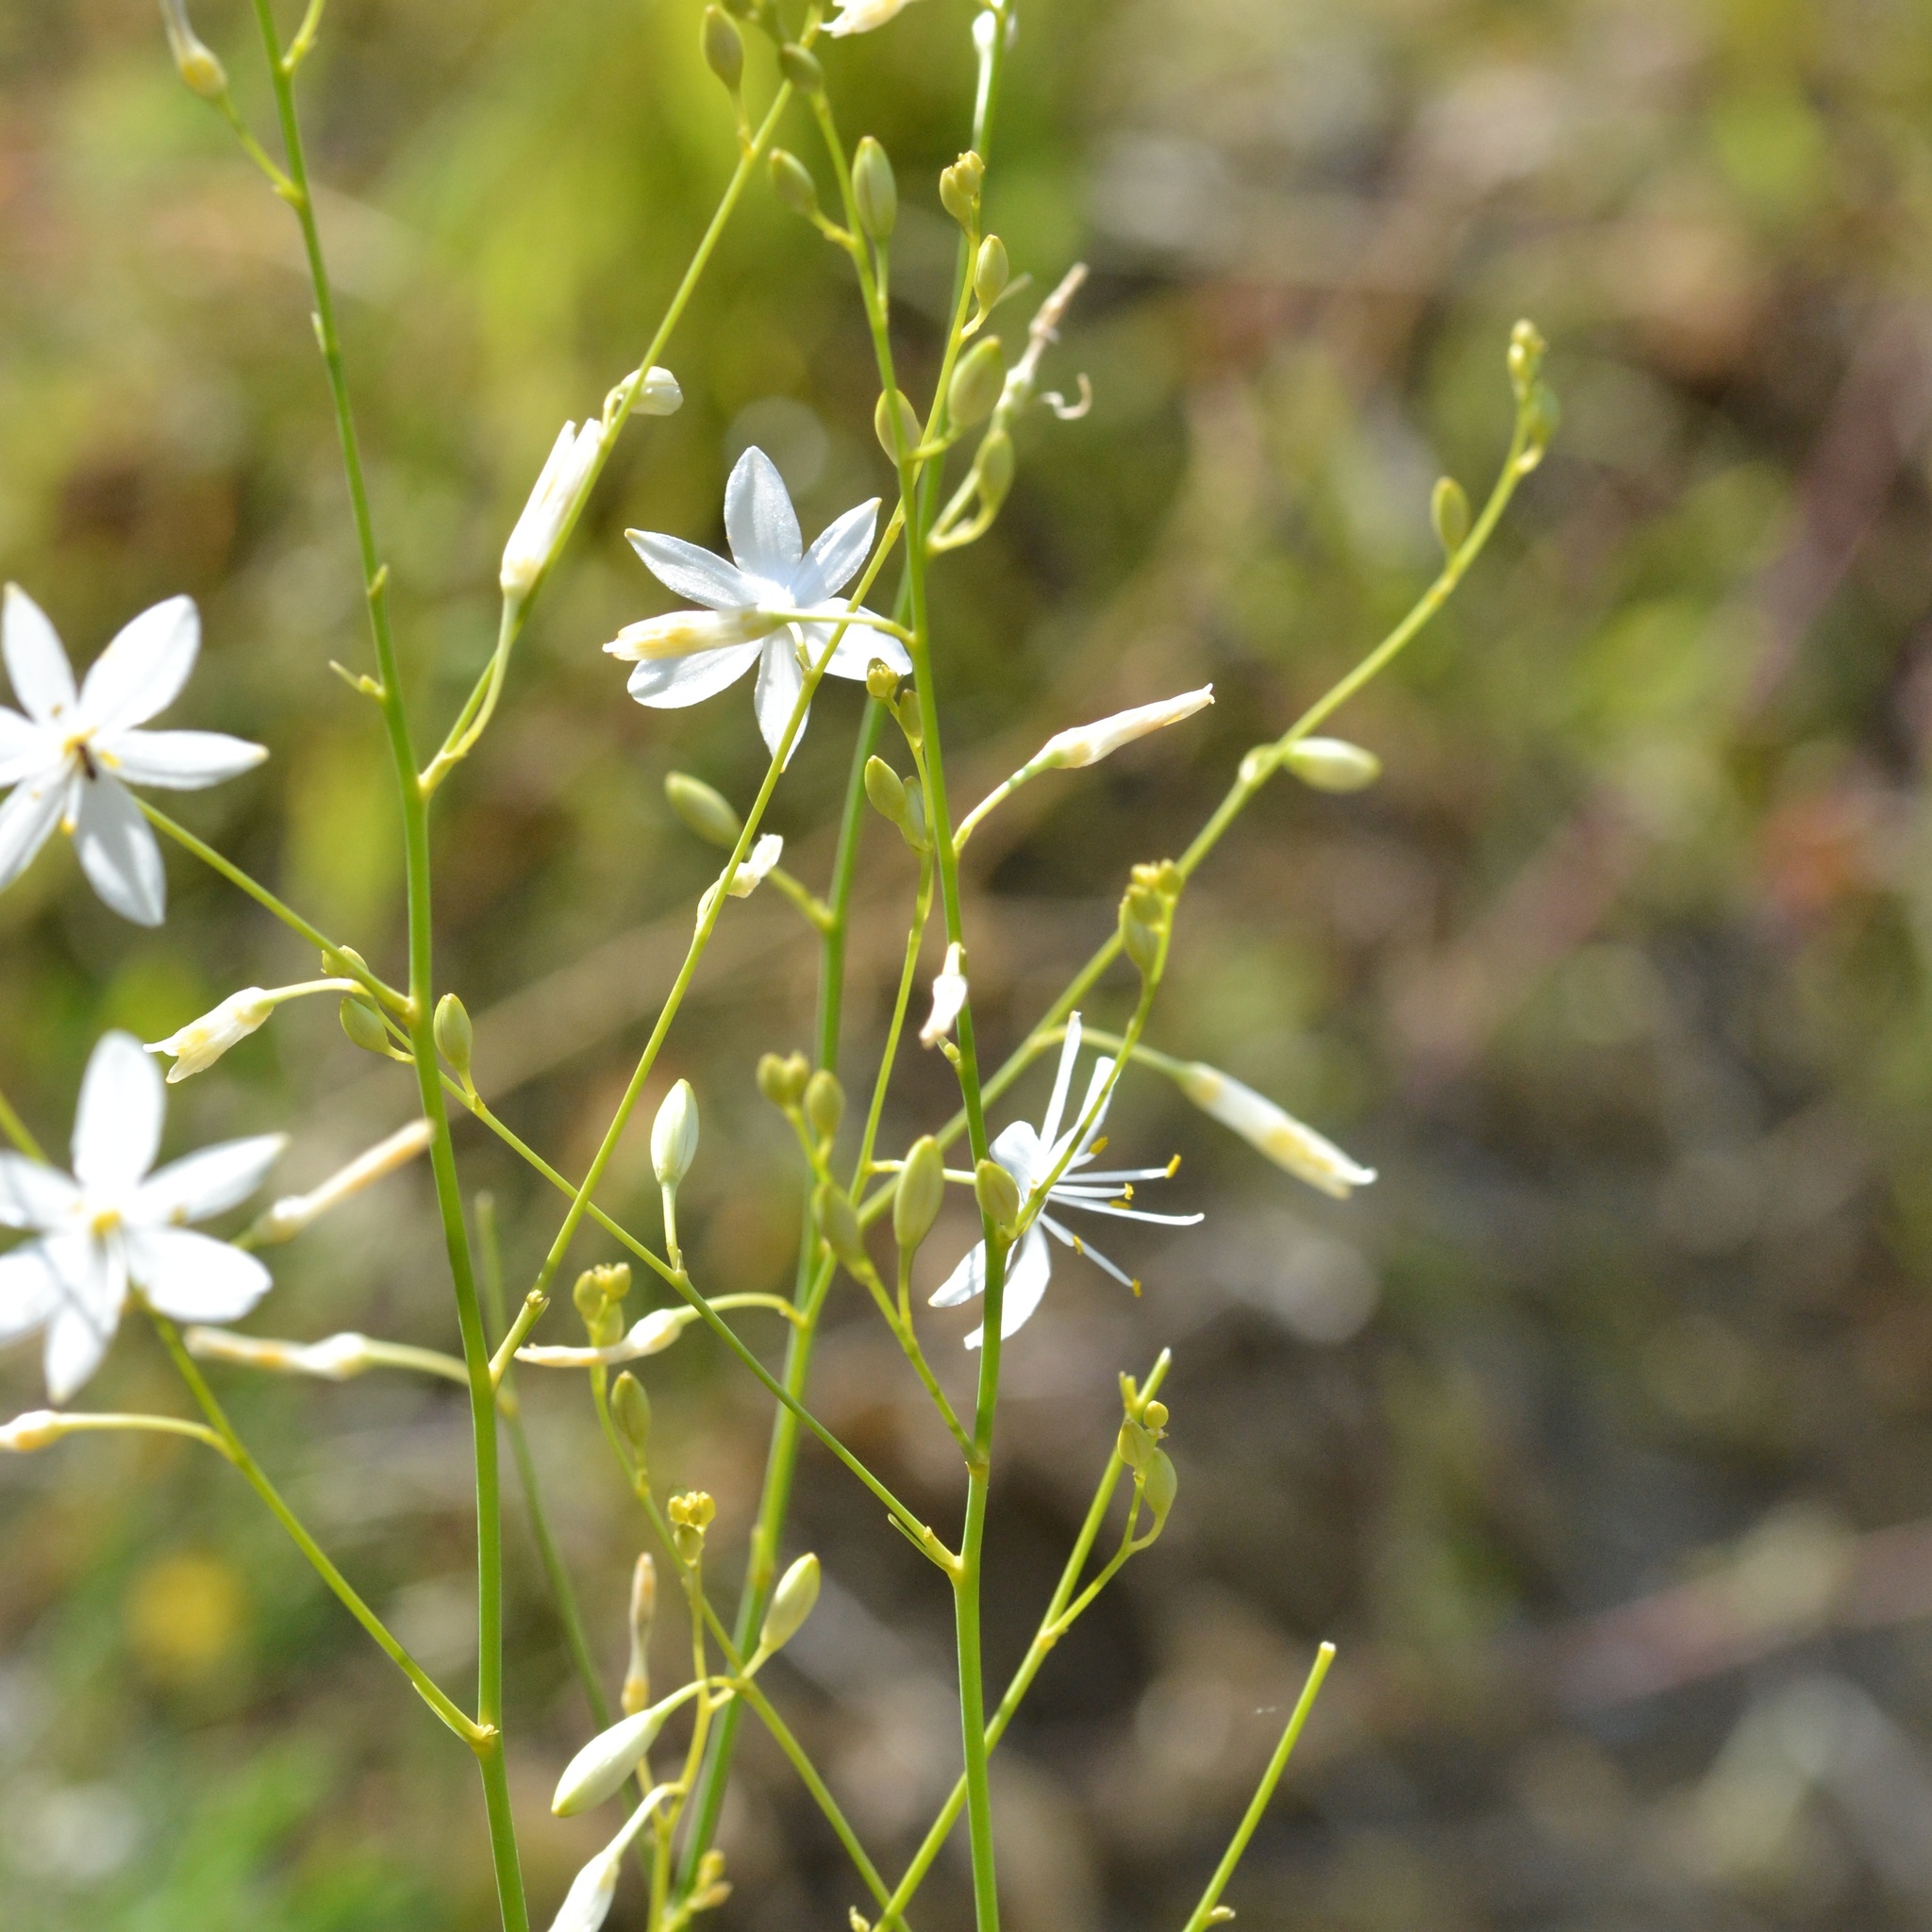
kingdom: Plantae
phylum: Tracheophyta
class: Liliopsida
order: Asparagales
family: Asparagaceae
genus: Anthericum
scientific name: Anthericum ramosum
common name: Branched st. bernard's-lily
